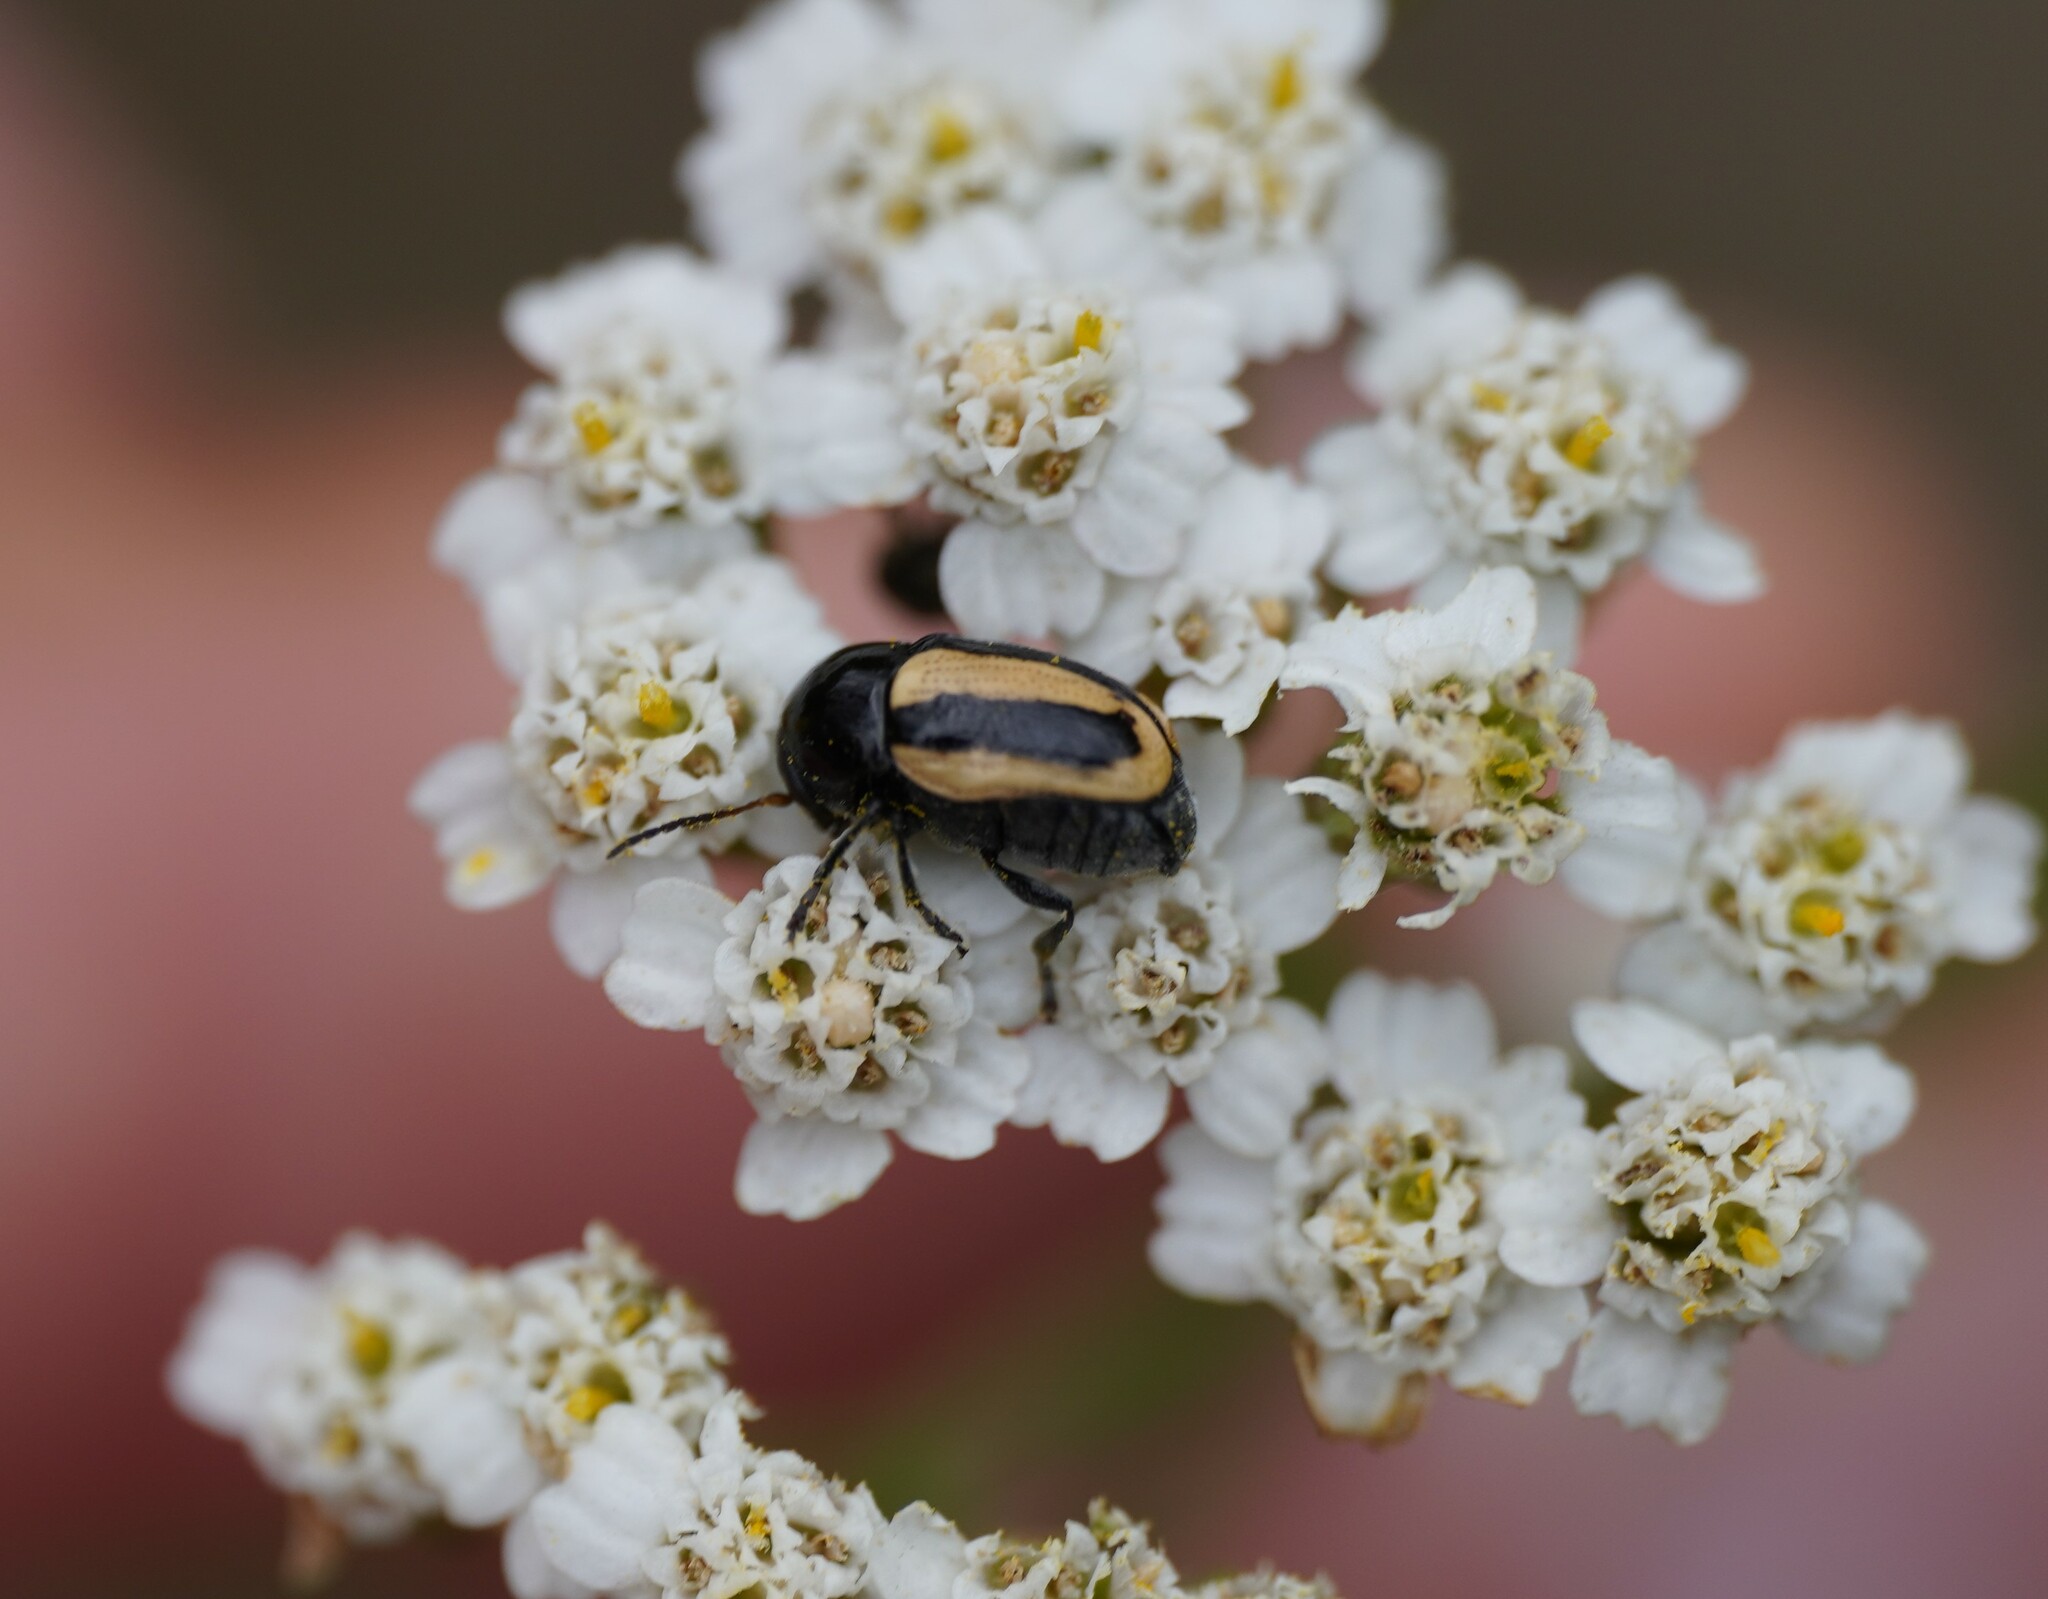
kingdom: Animalia
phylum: Arthropoda
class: Insecta
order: Coleoptera
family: Chrysomelidae
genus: Acalymma
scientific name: Acalymma vittatum
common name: Striped cucumber beetle
